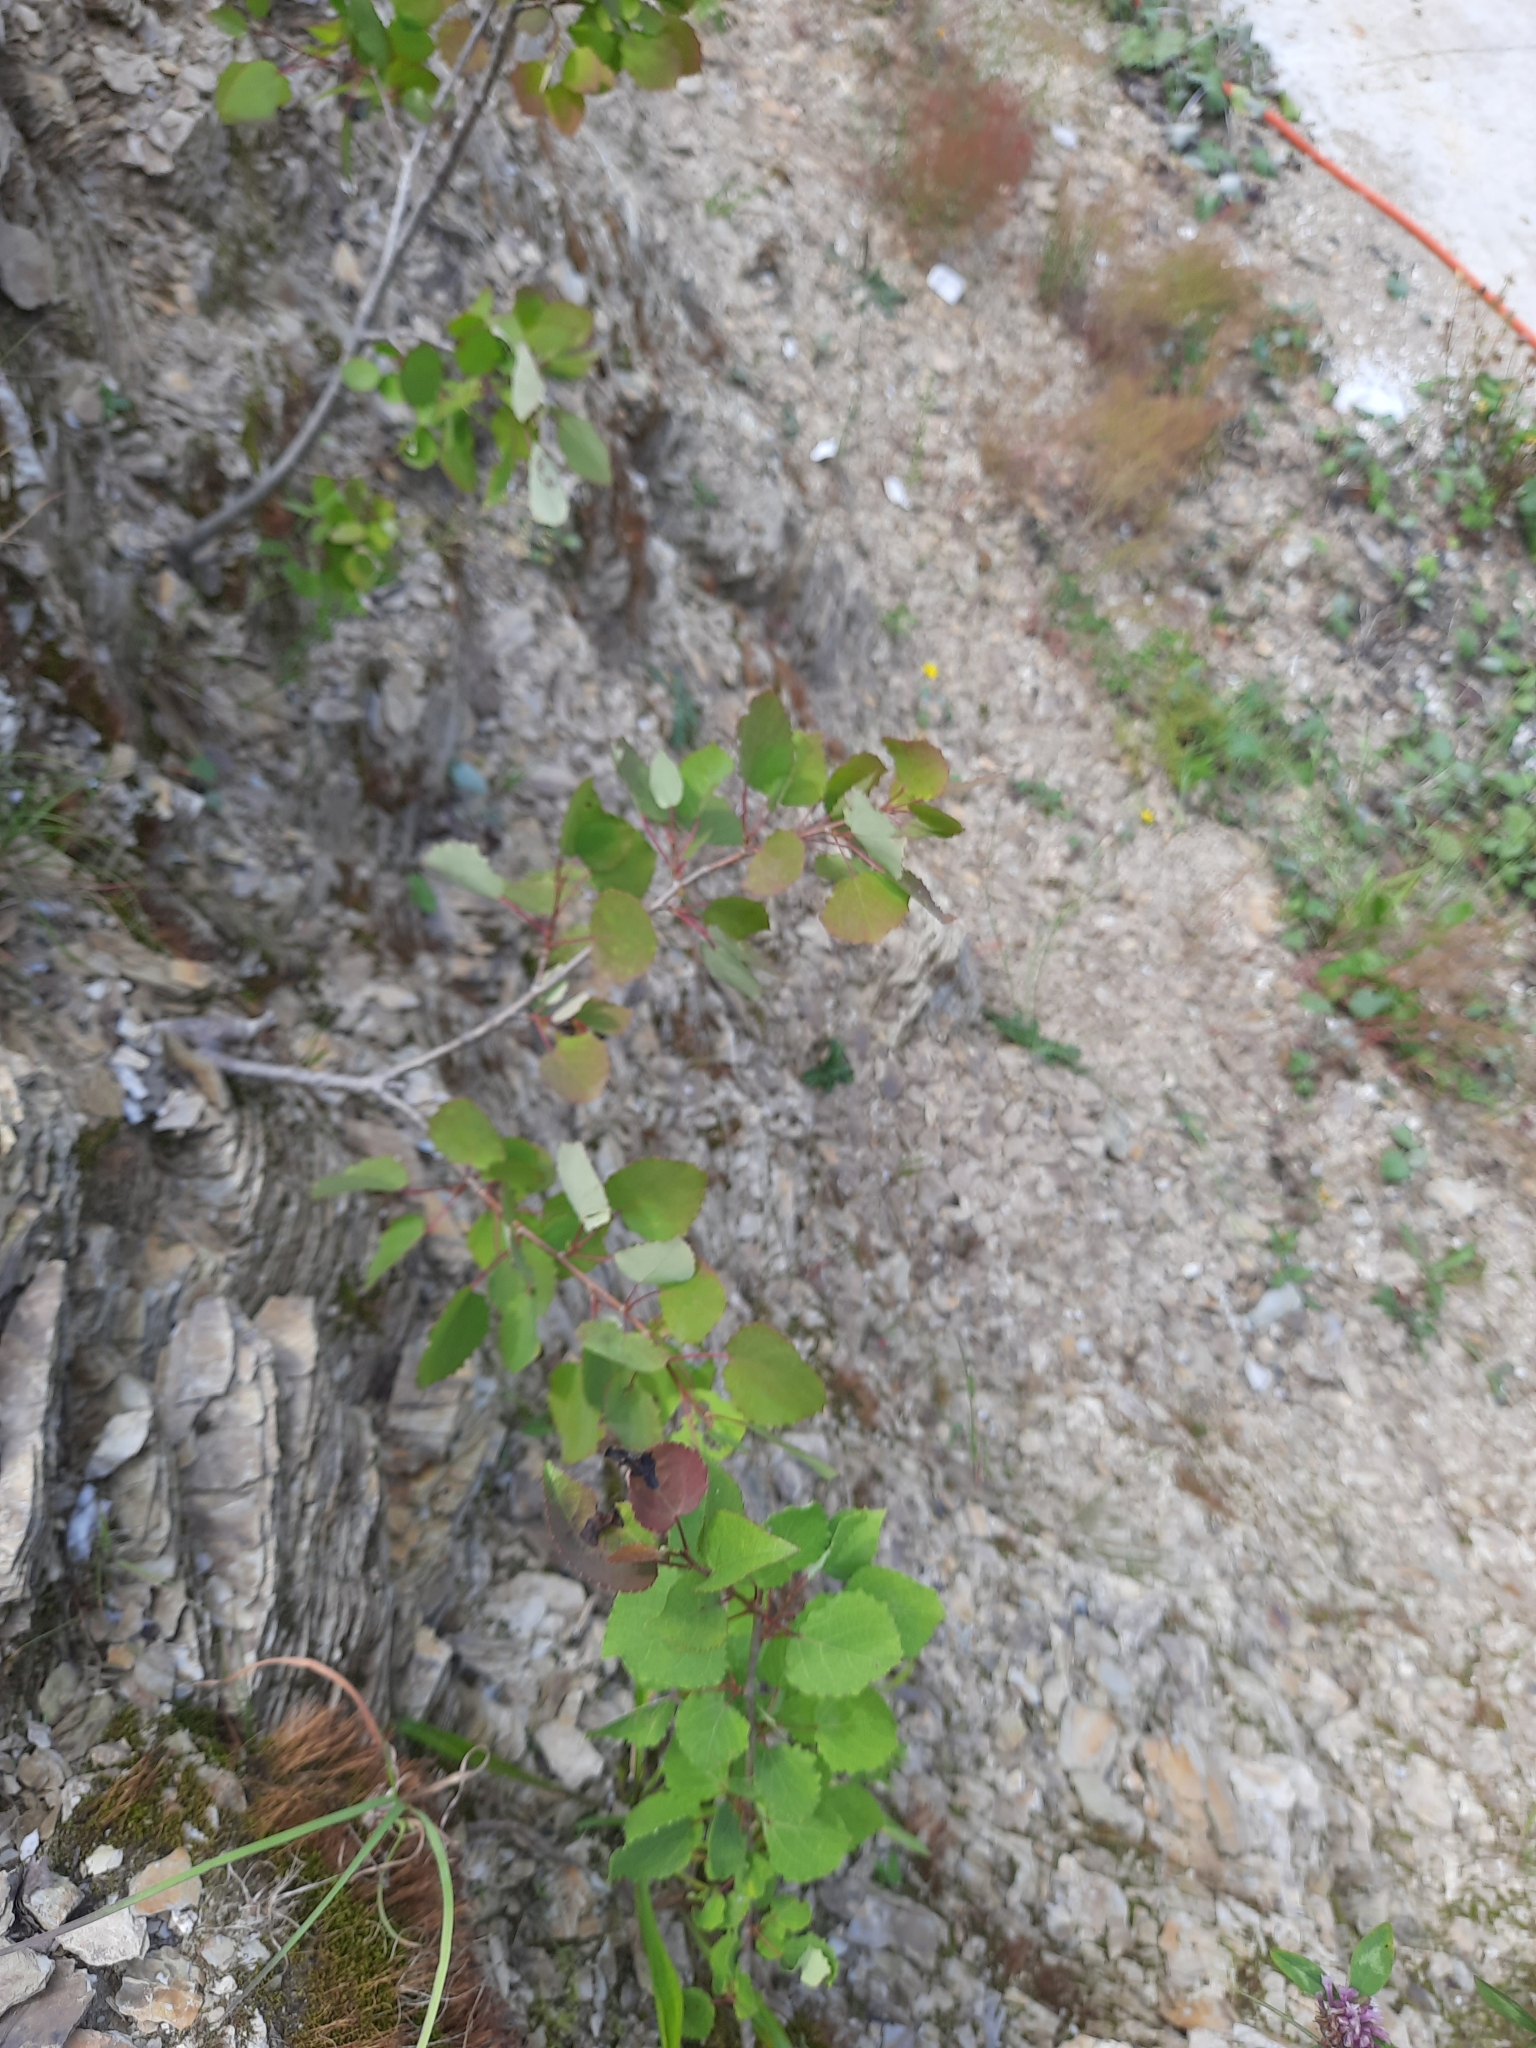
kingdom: Plantae
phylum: Tracheophyta
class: Magnoliopsida
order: Malpighiales
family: Salicaceae
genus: Populus
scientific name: Populus tremula
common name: European aspen
